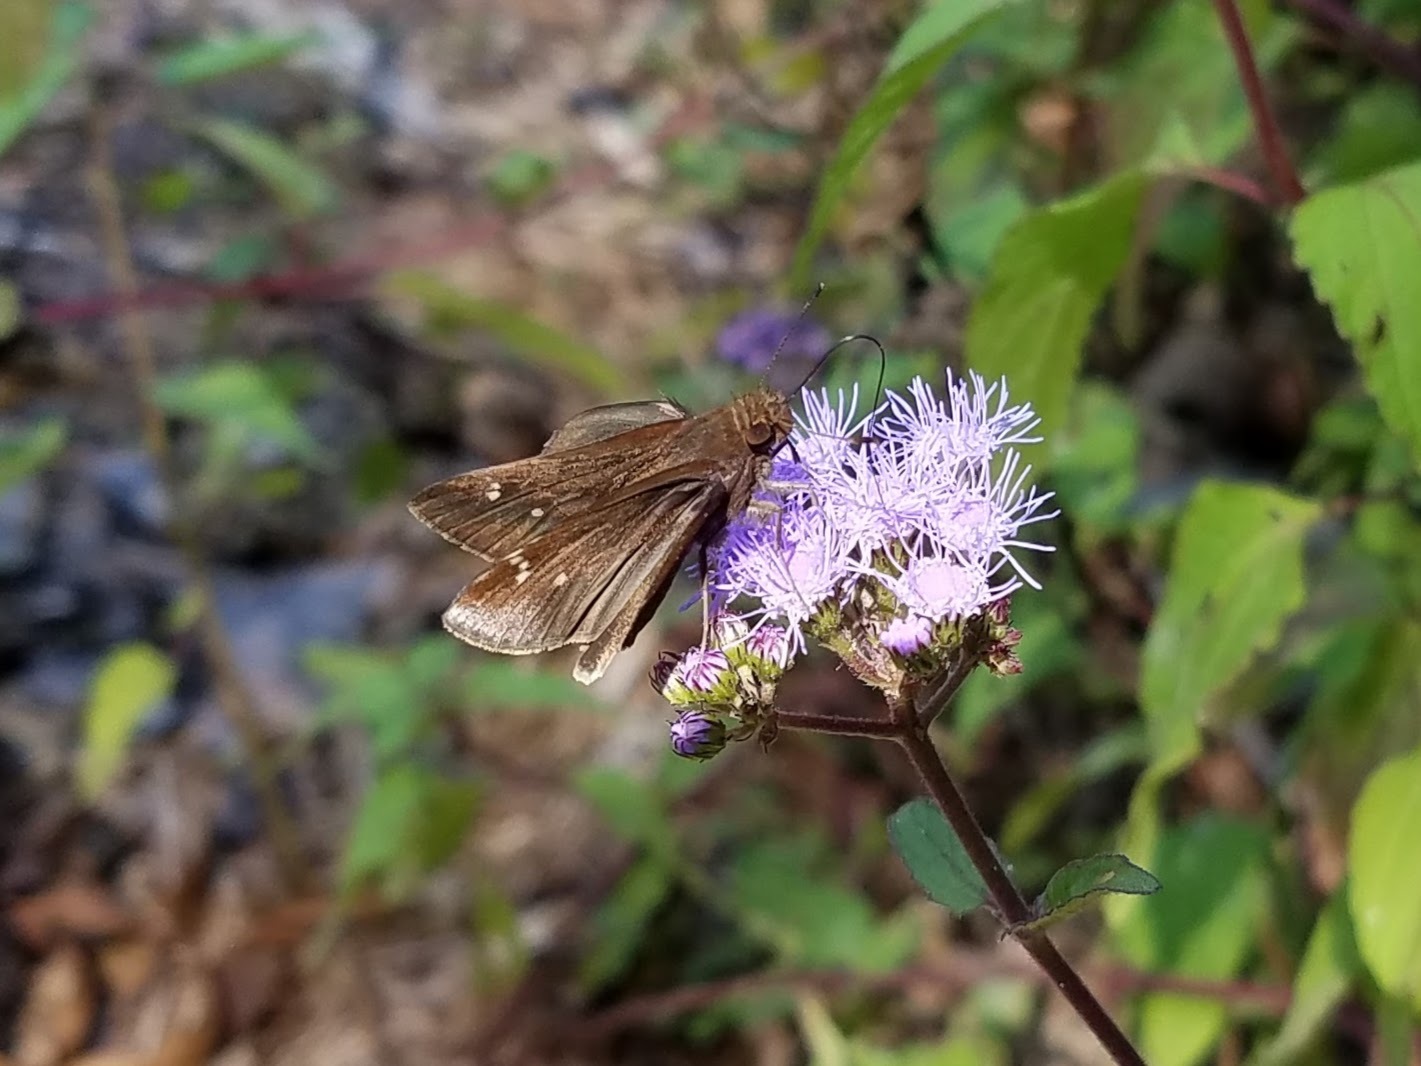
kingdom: Animalia
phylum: Arthropoda
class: Insecta
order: Lepidoptera
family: Hesperiidae
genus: Lerema
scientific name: Lerema accius
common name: Clouded skipper
